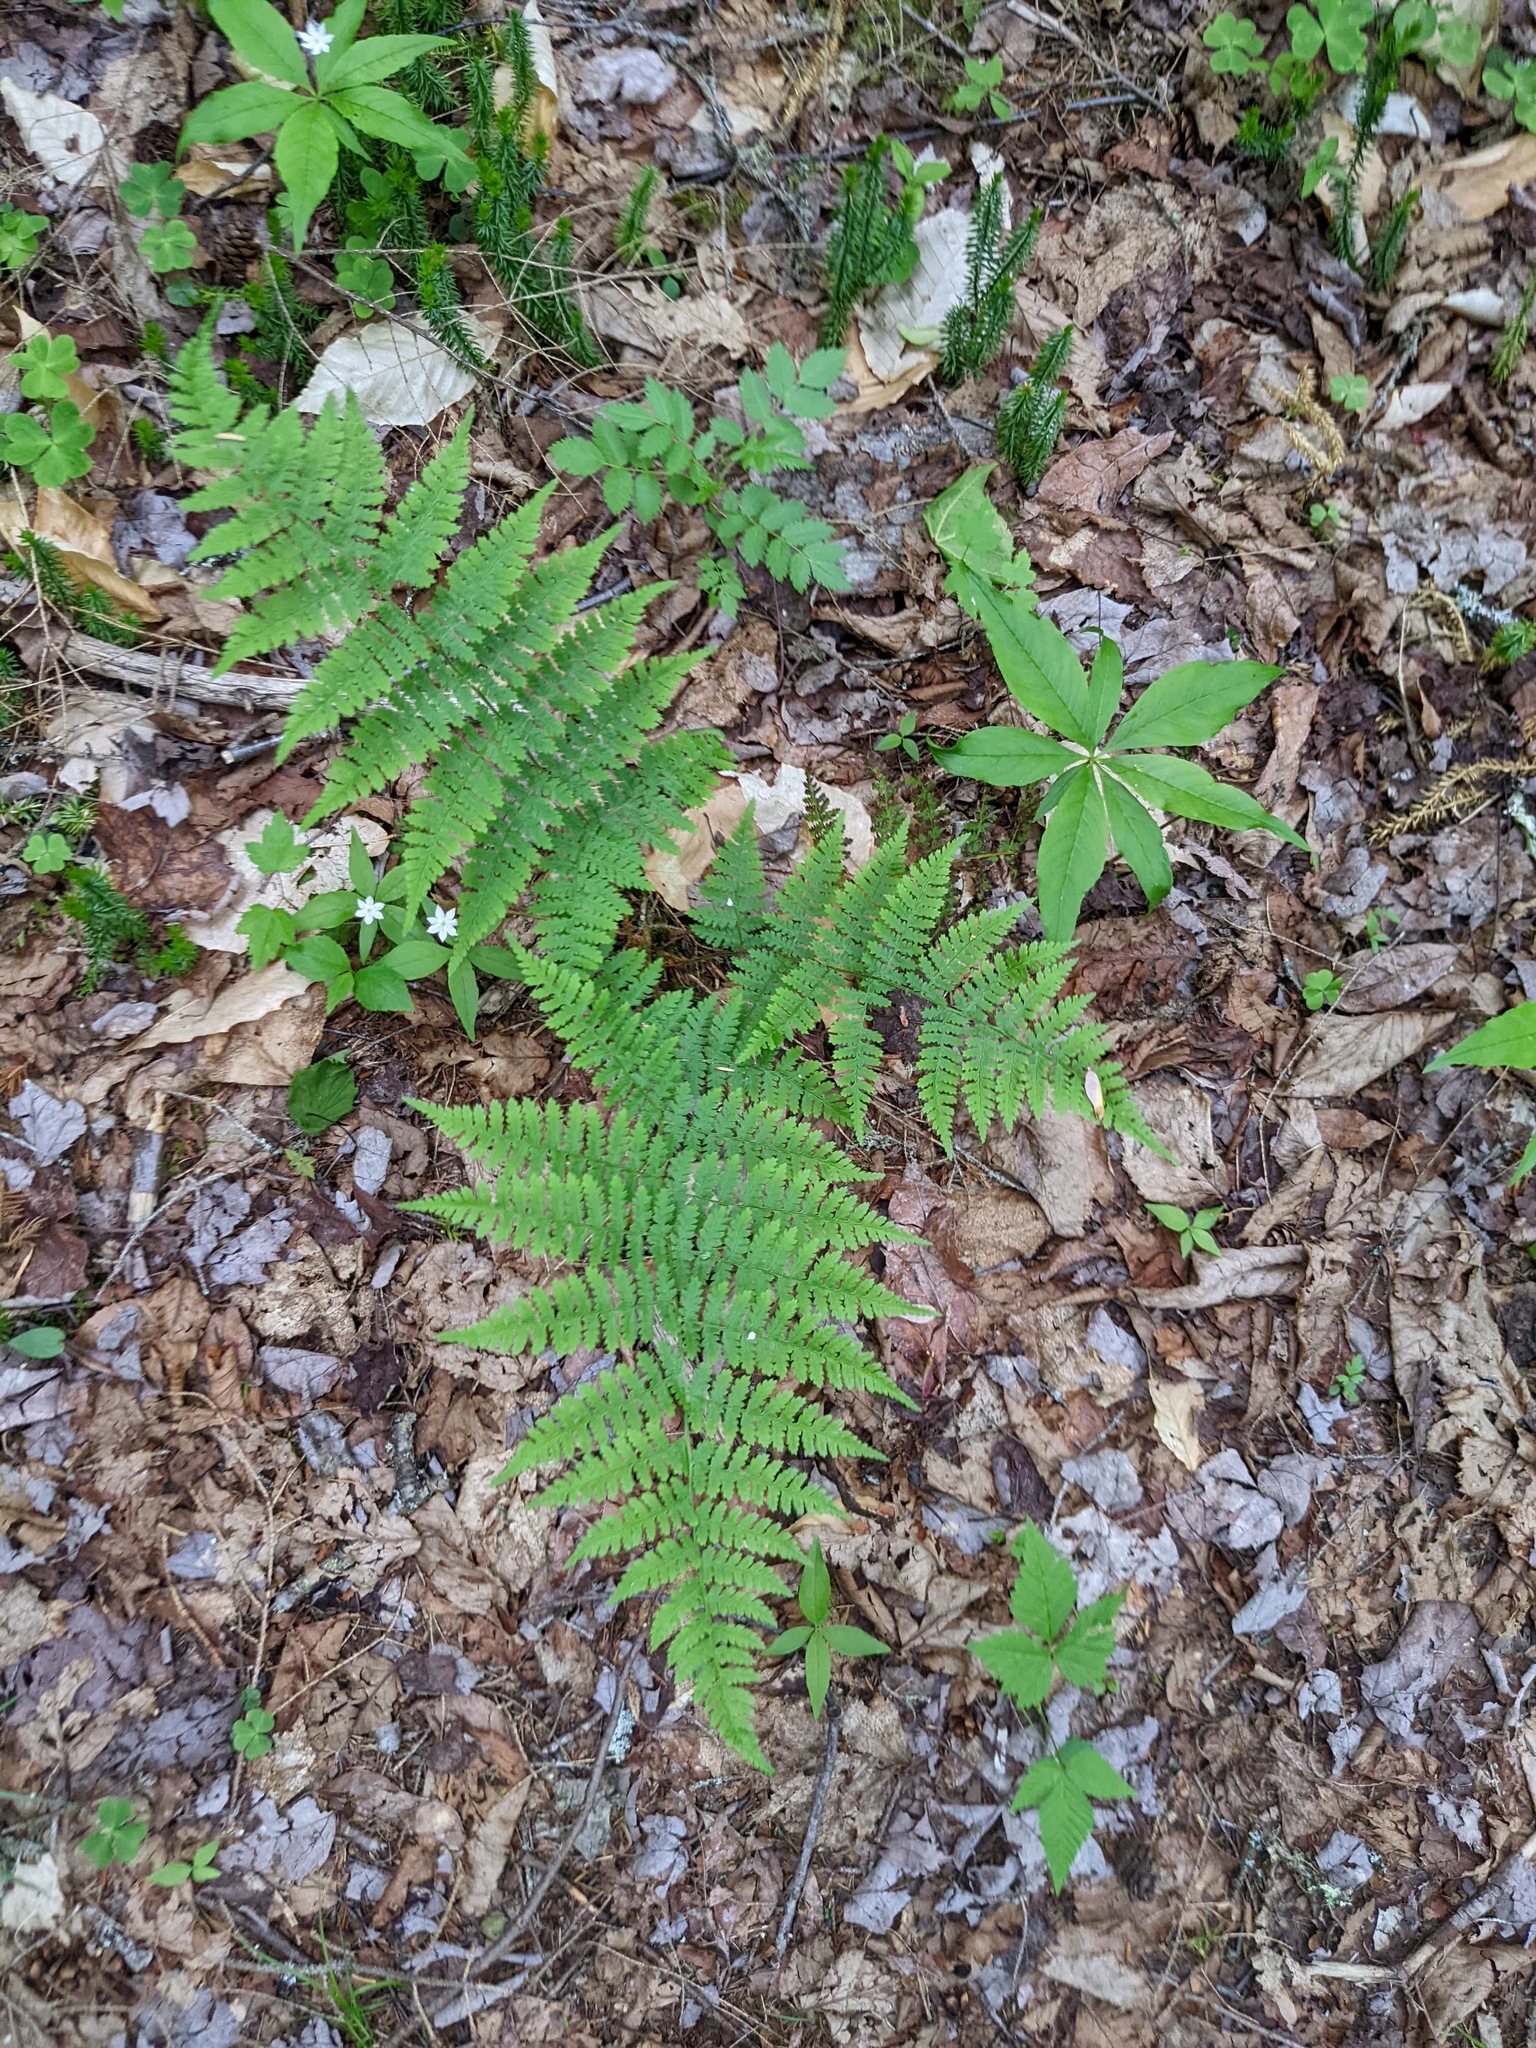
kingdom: Plantae
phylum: Tracheophyta
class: Polypodiopsida
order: Polypodiales
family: Dryopteridaceae
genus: Dryopteris
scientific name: Dryopteris intermedia
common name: Evergreen wood fern
